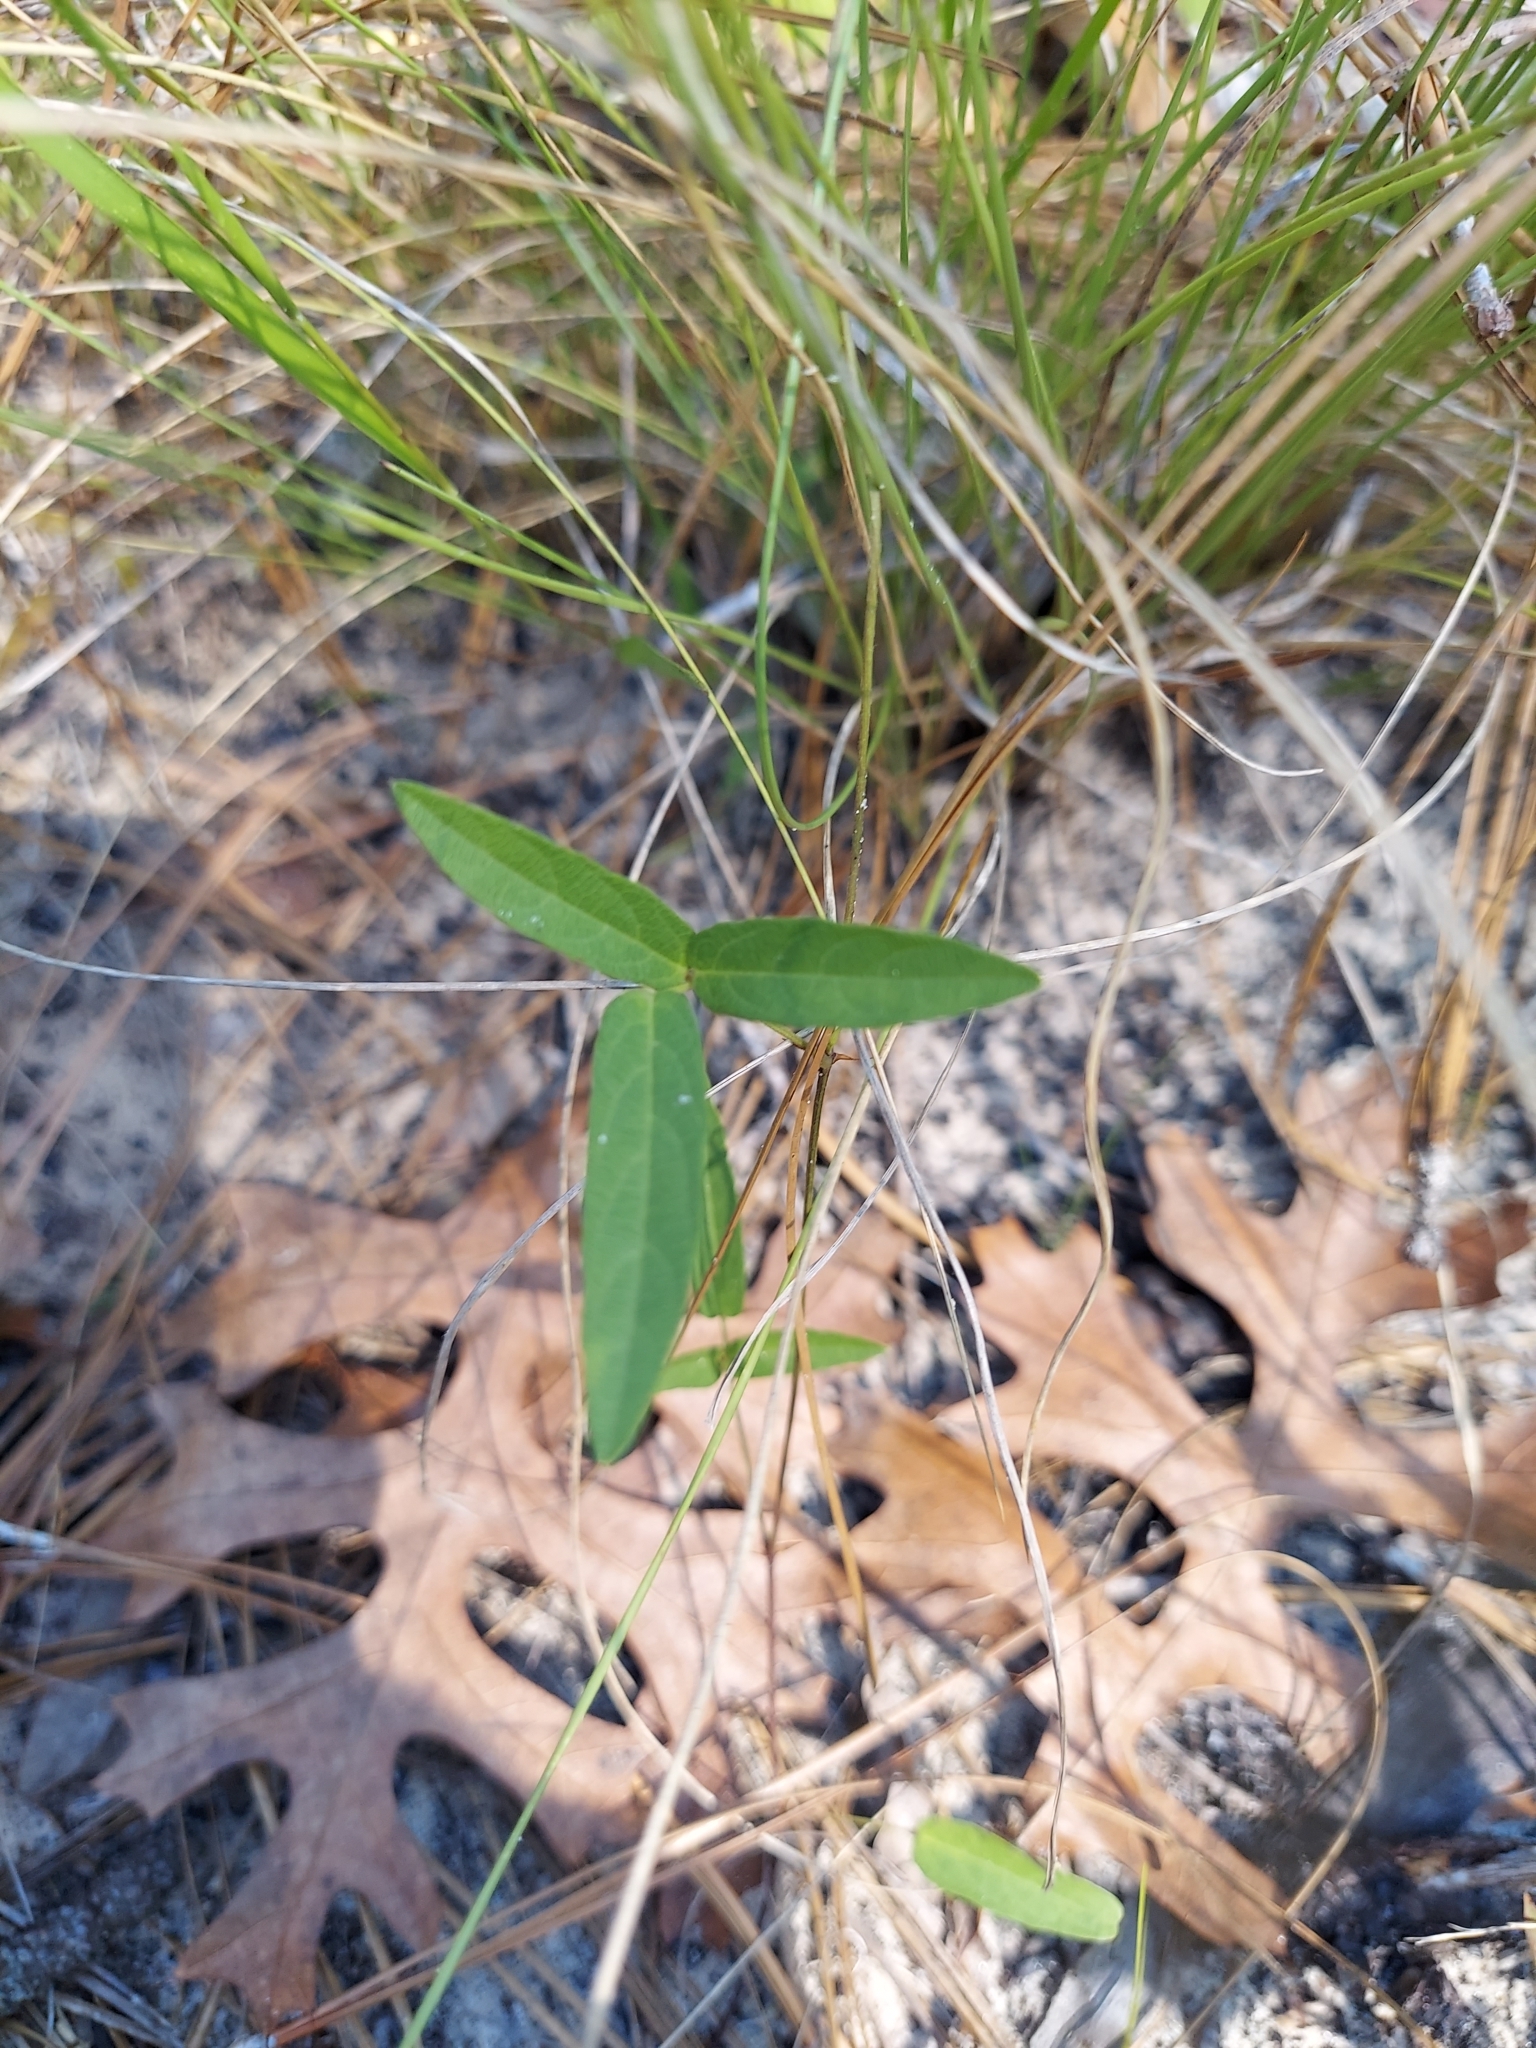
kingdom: Plantae
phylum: Tracheophyta
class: Magnoliopsida
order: Fabales
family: Fabaceae
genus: Centrosema
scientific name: Centrosema virginianum
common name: Butterfly-pea
